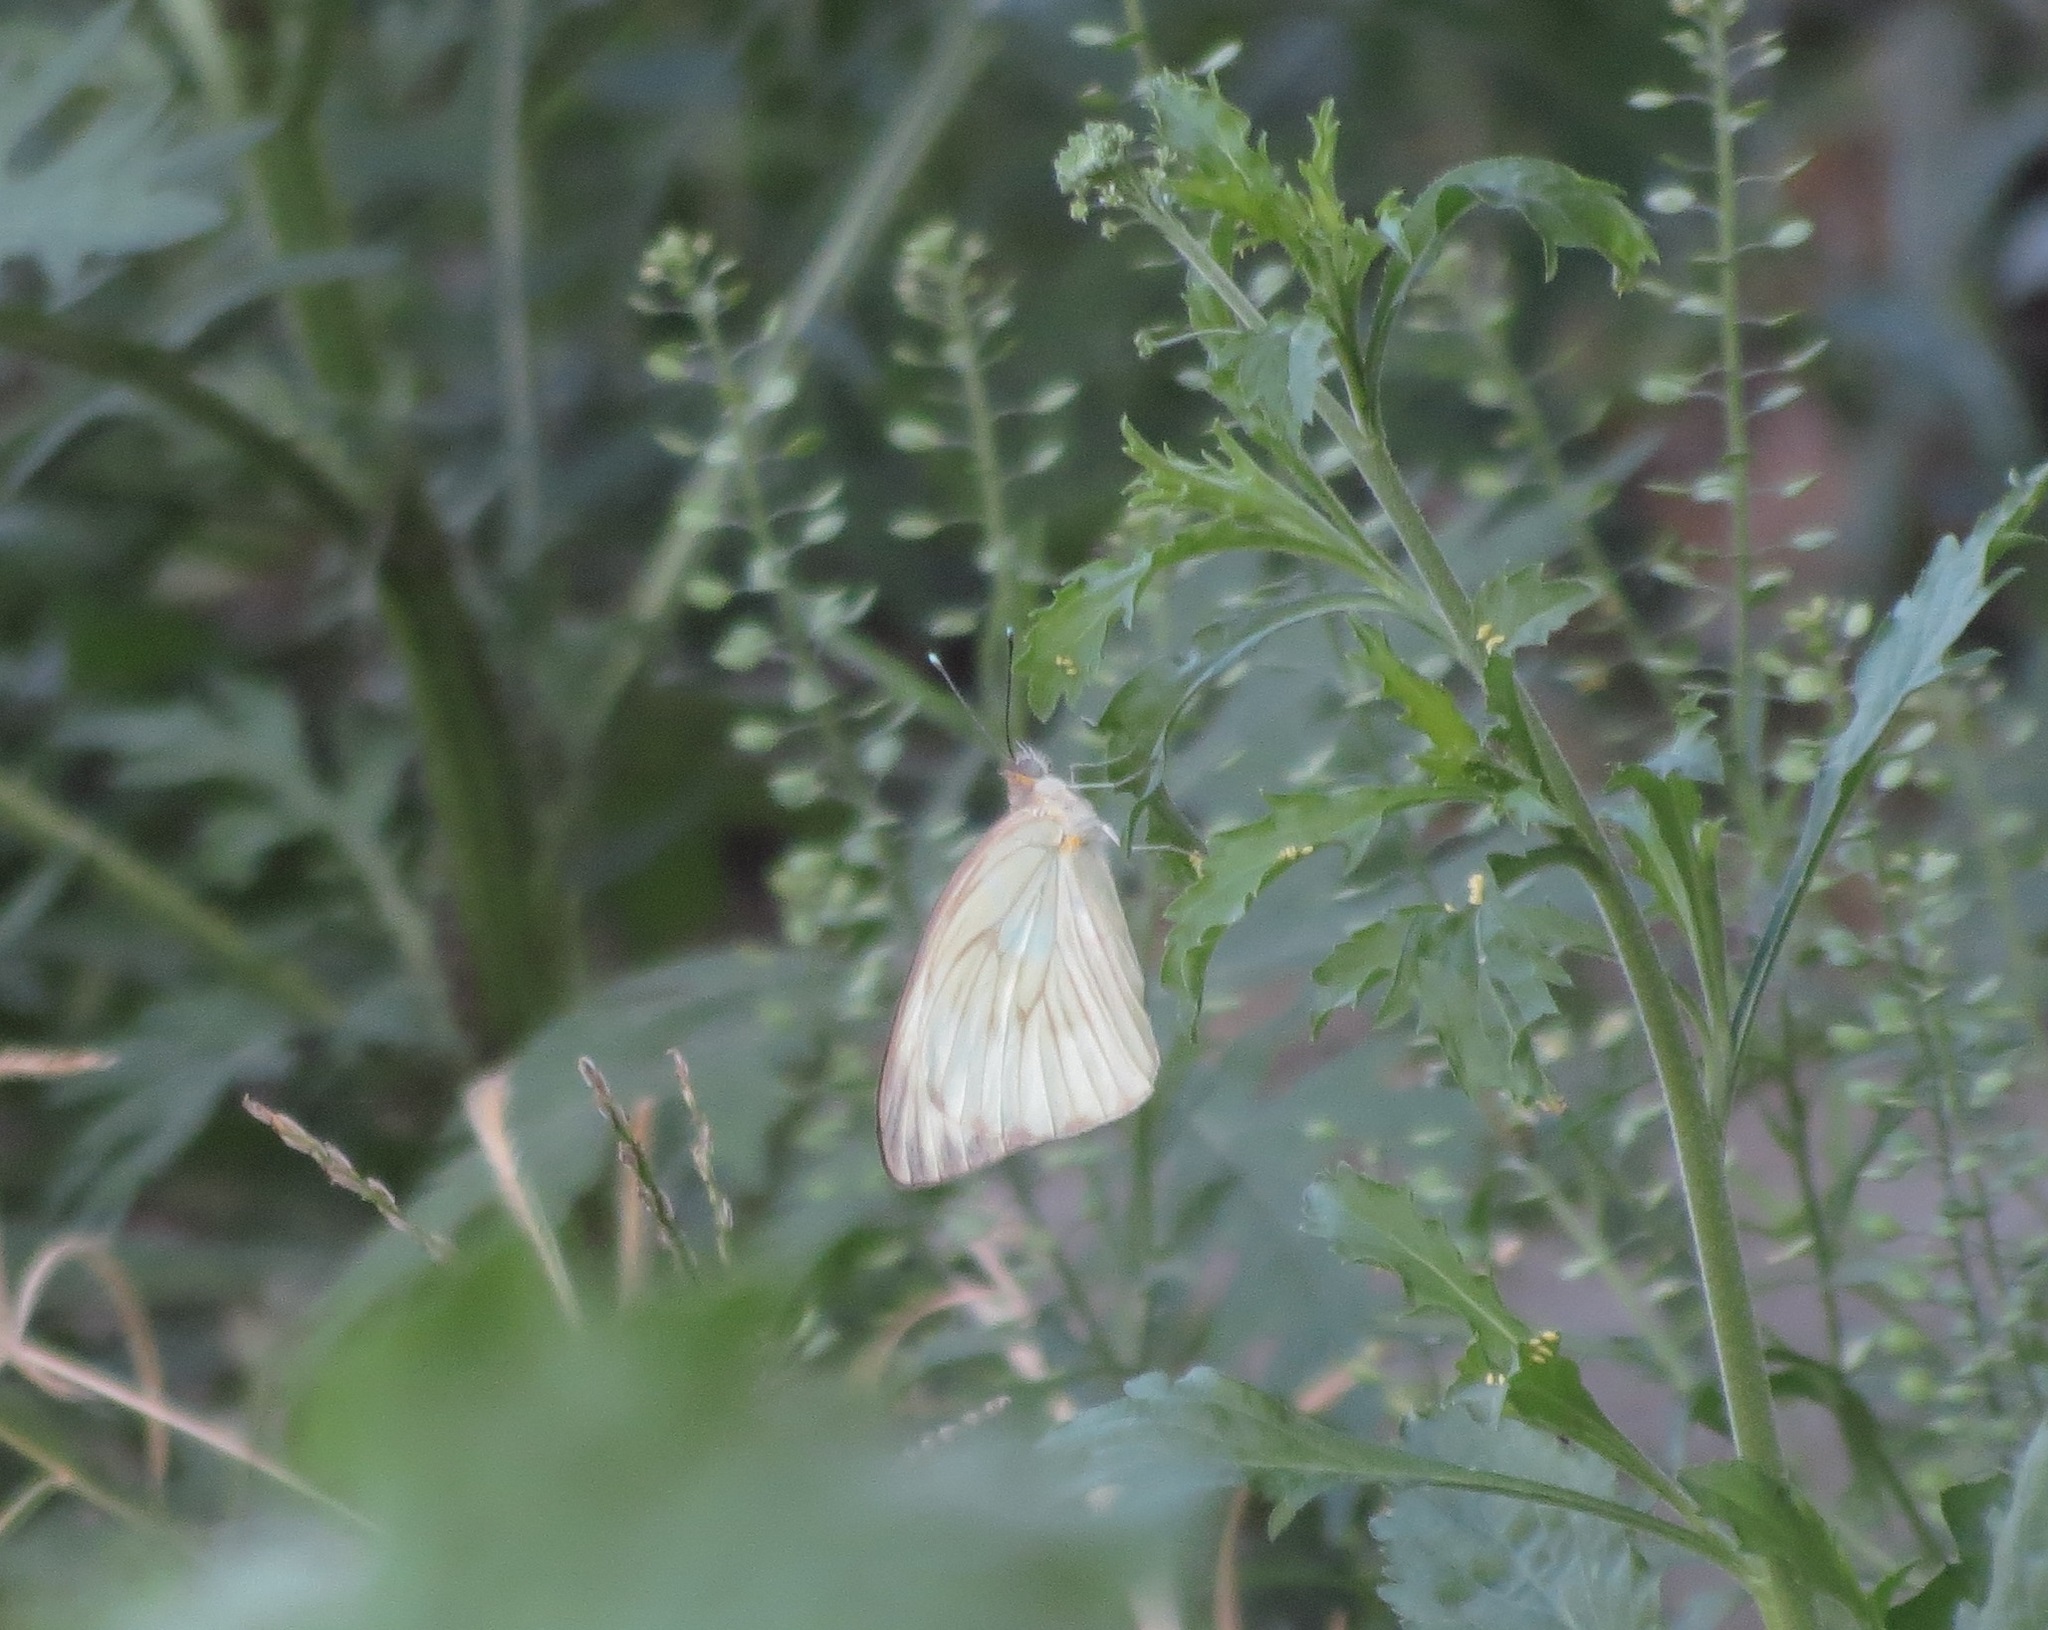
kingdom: Animalia
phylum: Arthropoda
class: Insecta
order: Lepidoptera
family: Pieridae
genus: Ascia
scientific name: Ascia monuste
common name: Great southern white
